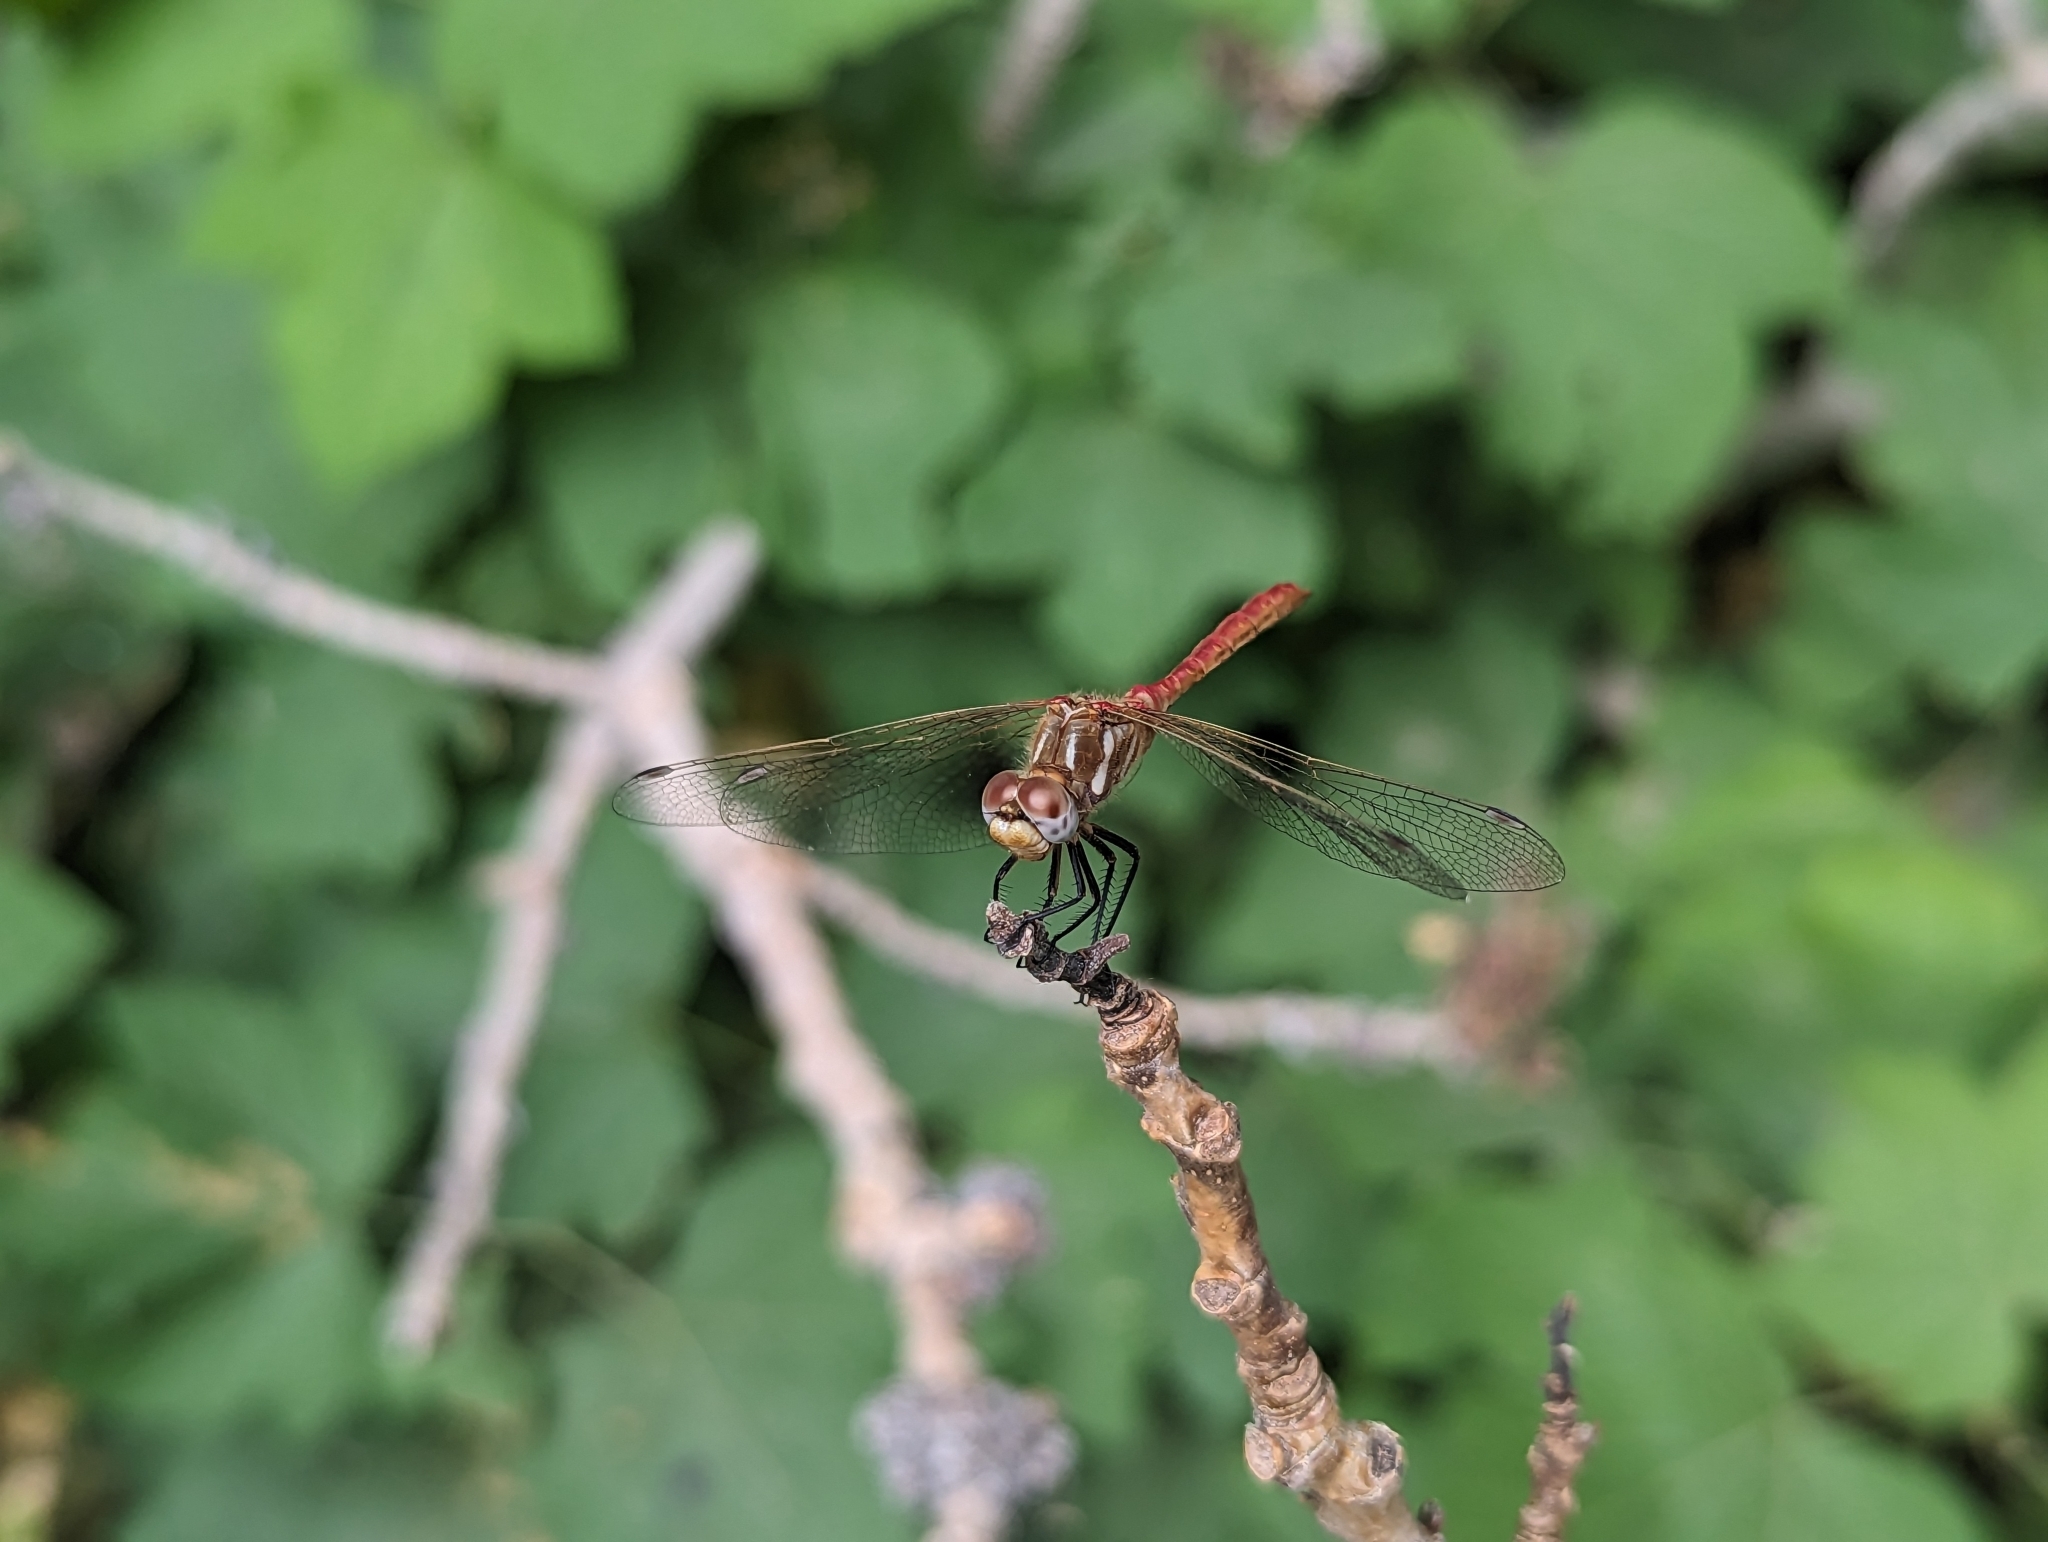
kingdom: Animalia
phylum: Arthropoda
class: Insecta
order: Odonata
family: Libellulidae
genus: Sympetrum
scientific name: Sympetrum pallipes
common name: Striped meadowhawk
